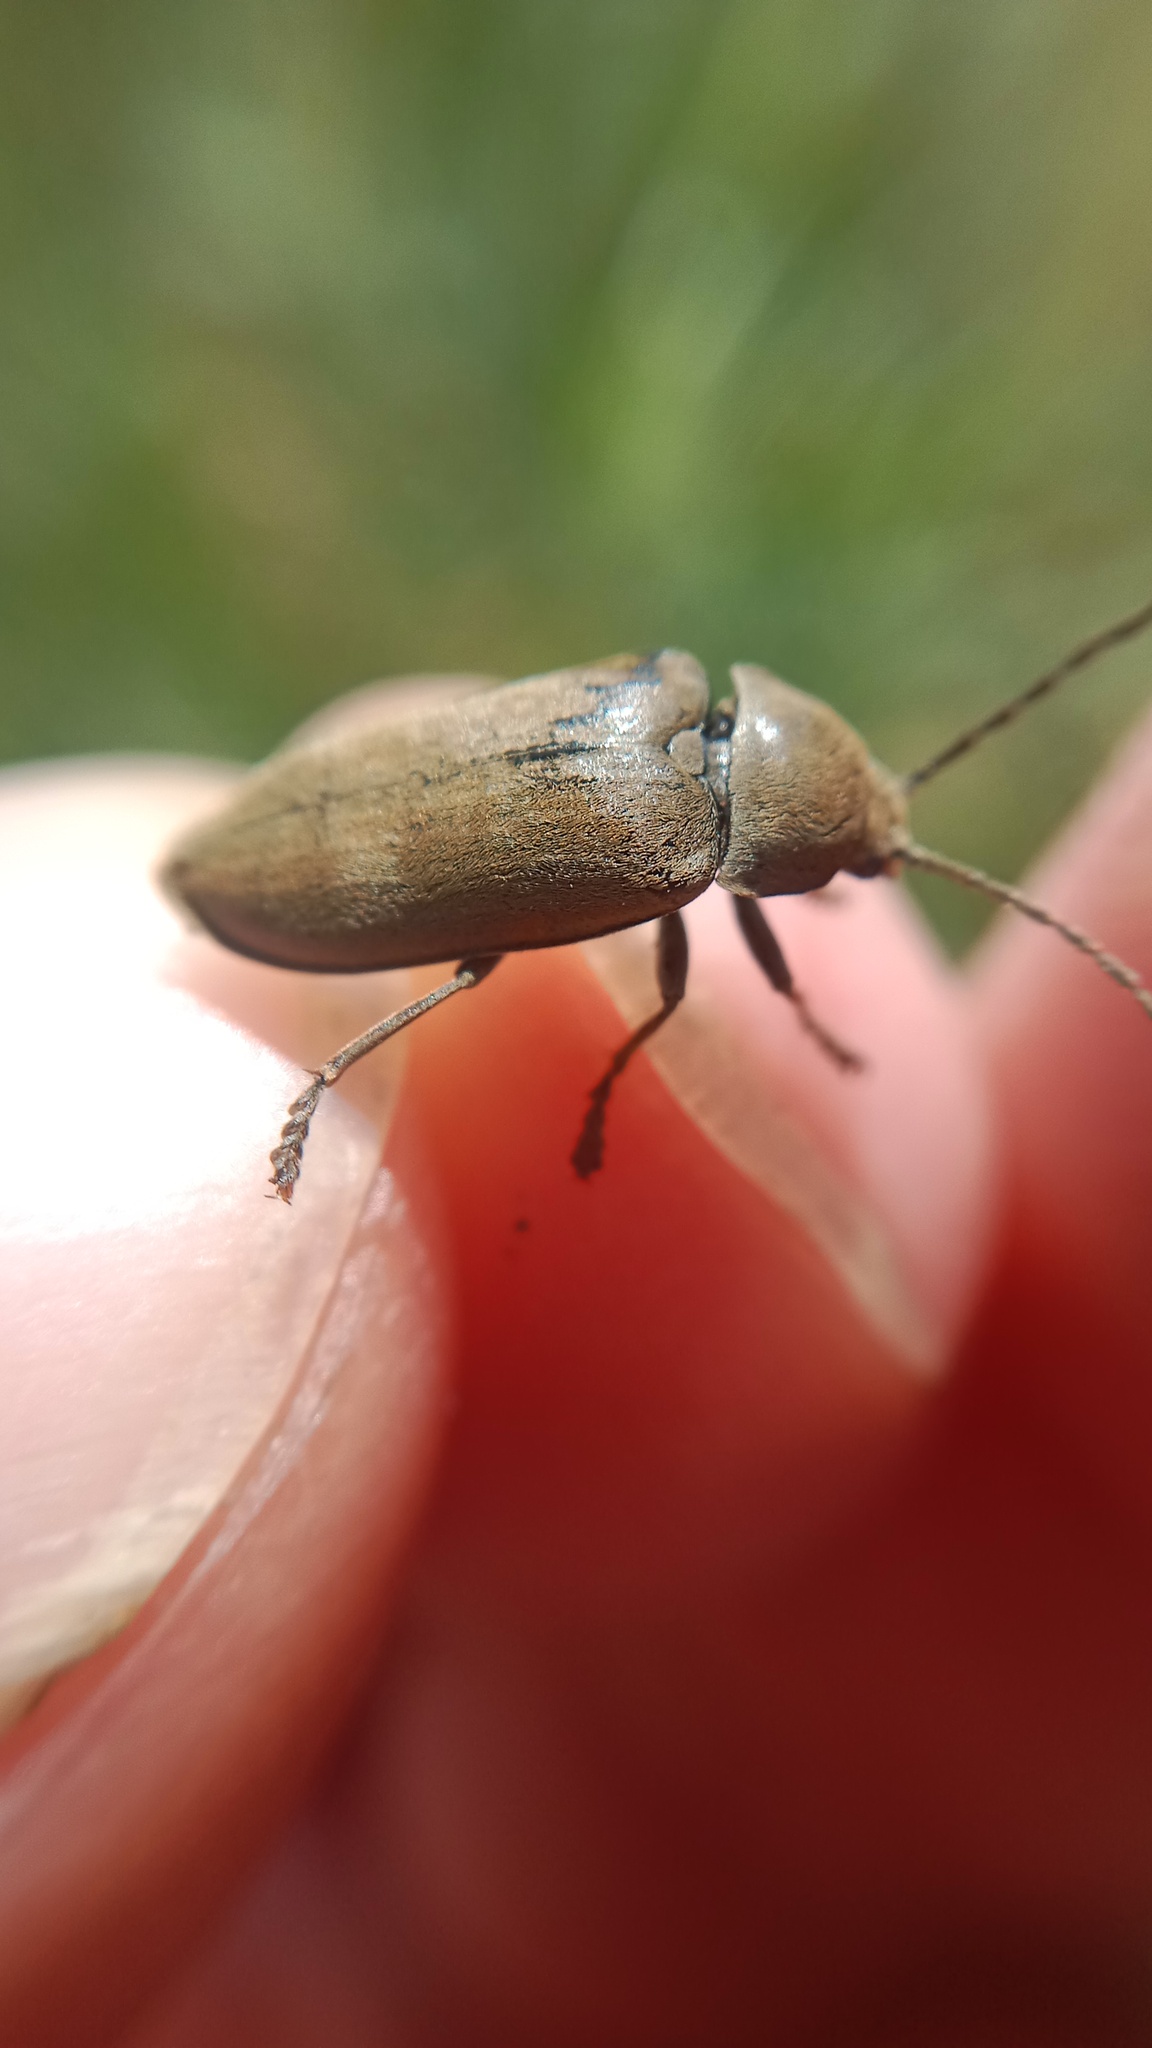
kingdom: Animalia
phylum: Arthropoda
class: Insecta
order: Coleoptera
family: Dascillidae
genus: Dascillus
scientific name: Dascillus cervinus
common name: Orchid beetle
